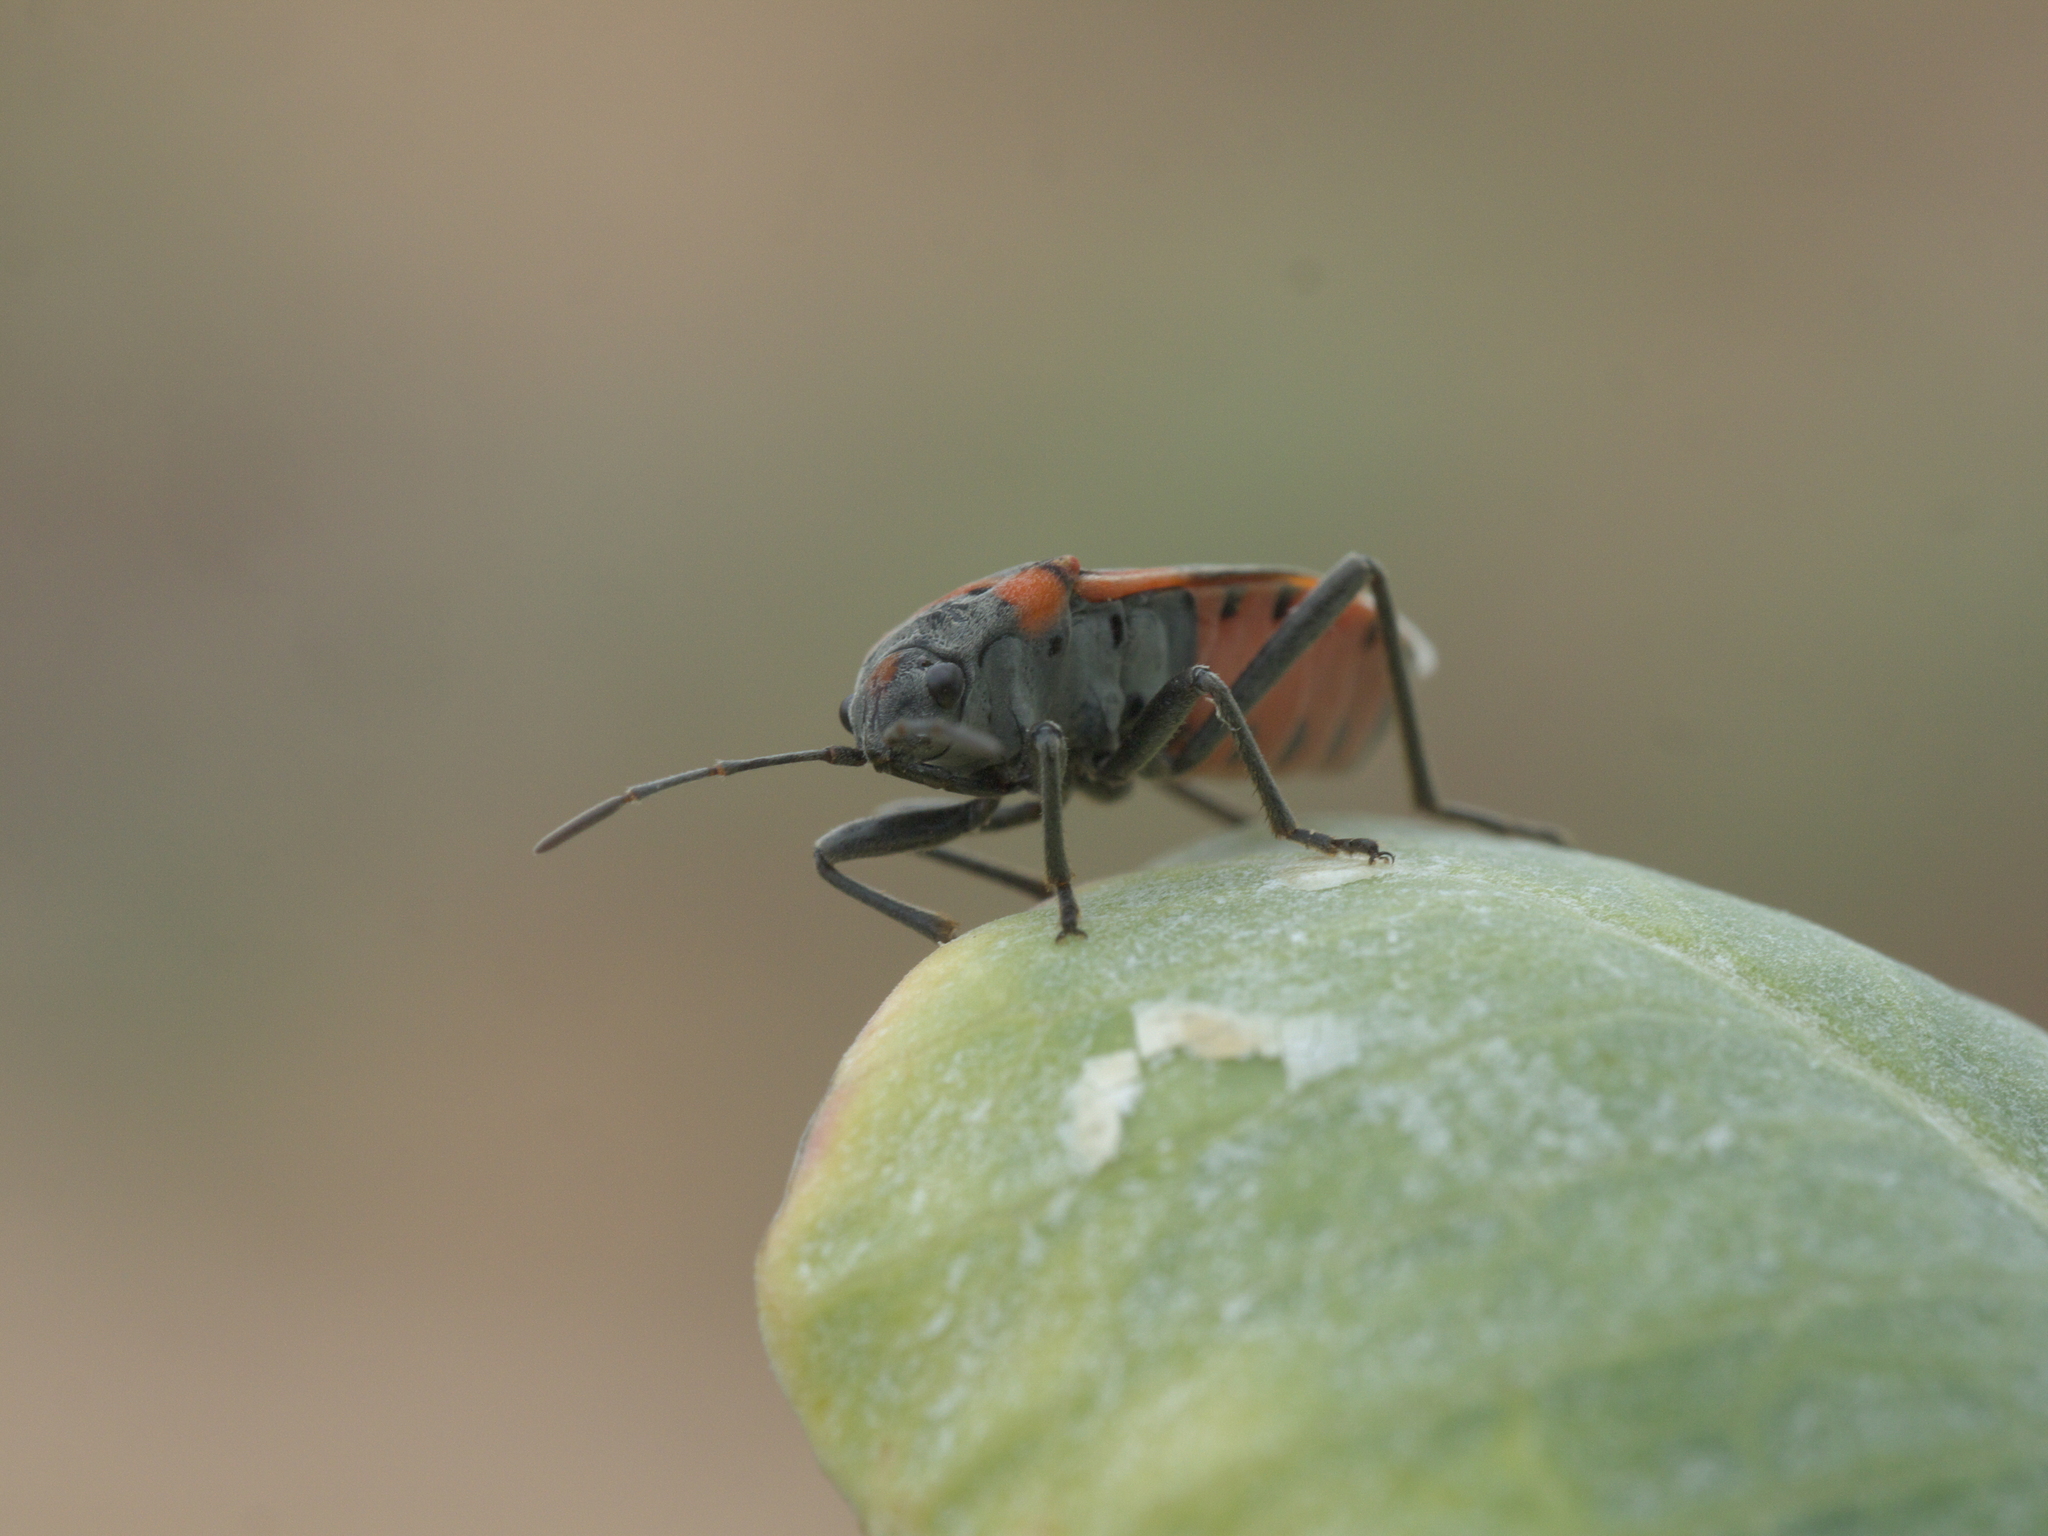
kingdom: Animalia
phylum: Arthropoda
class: Insecta
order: Hemiptera
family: Lygaeidae
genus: Lygaeus
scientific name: Lygaeus kalmii
